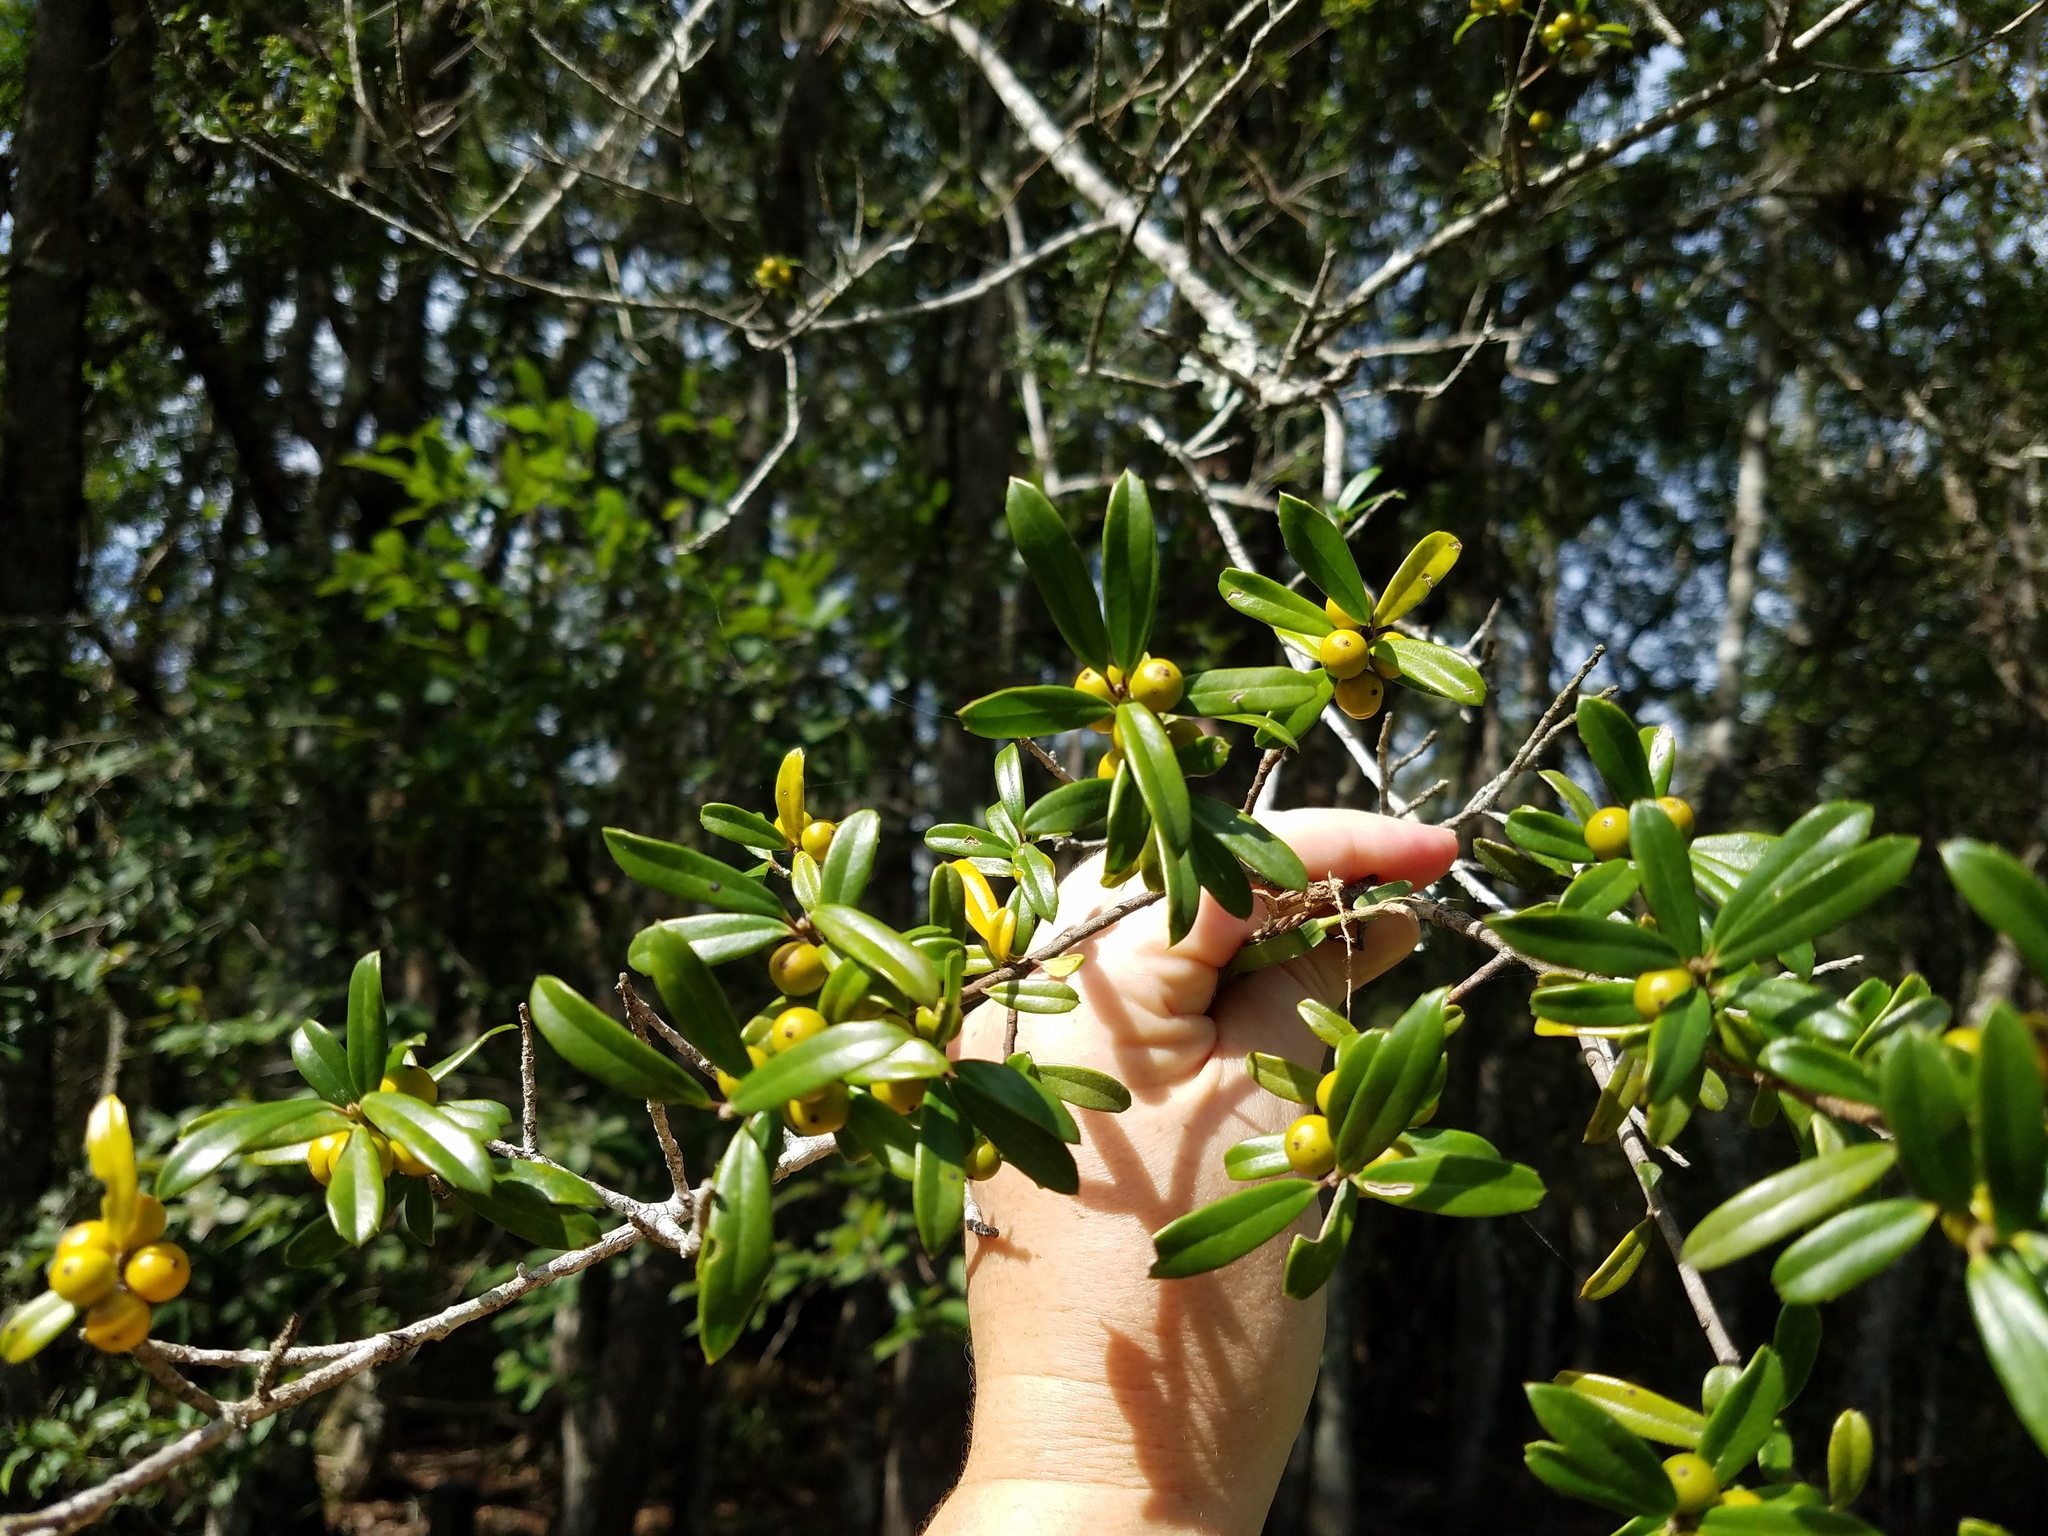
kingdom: Plantae
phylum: Tracheophyta
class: Magnoliopsida
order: Aquifoliales
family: Aquifoliaceae
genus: Ilex
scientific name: Ilex myrtifolia
